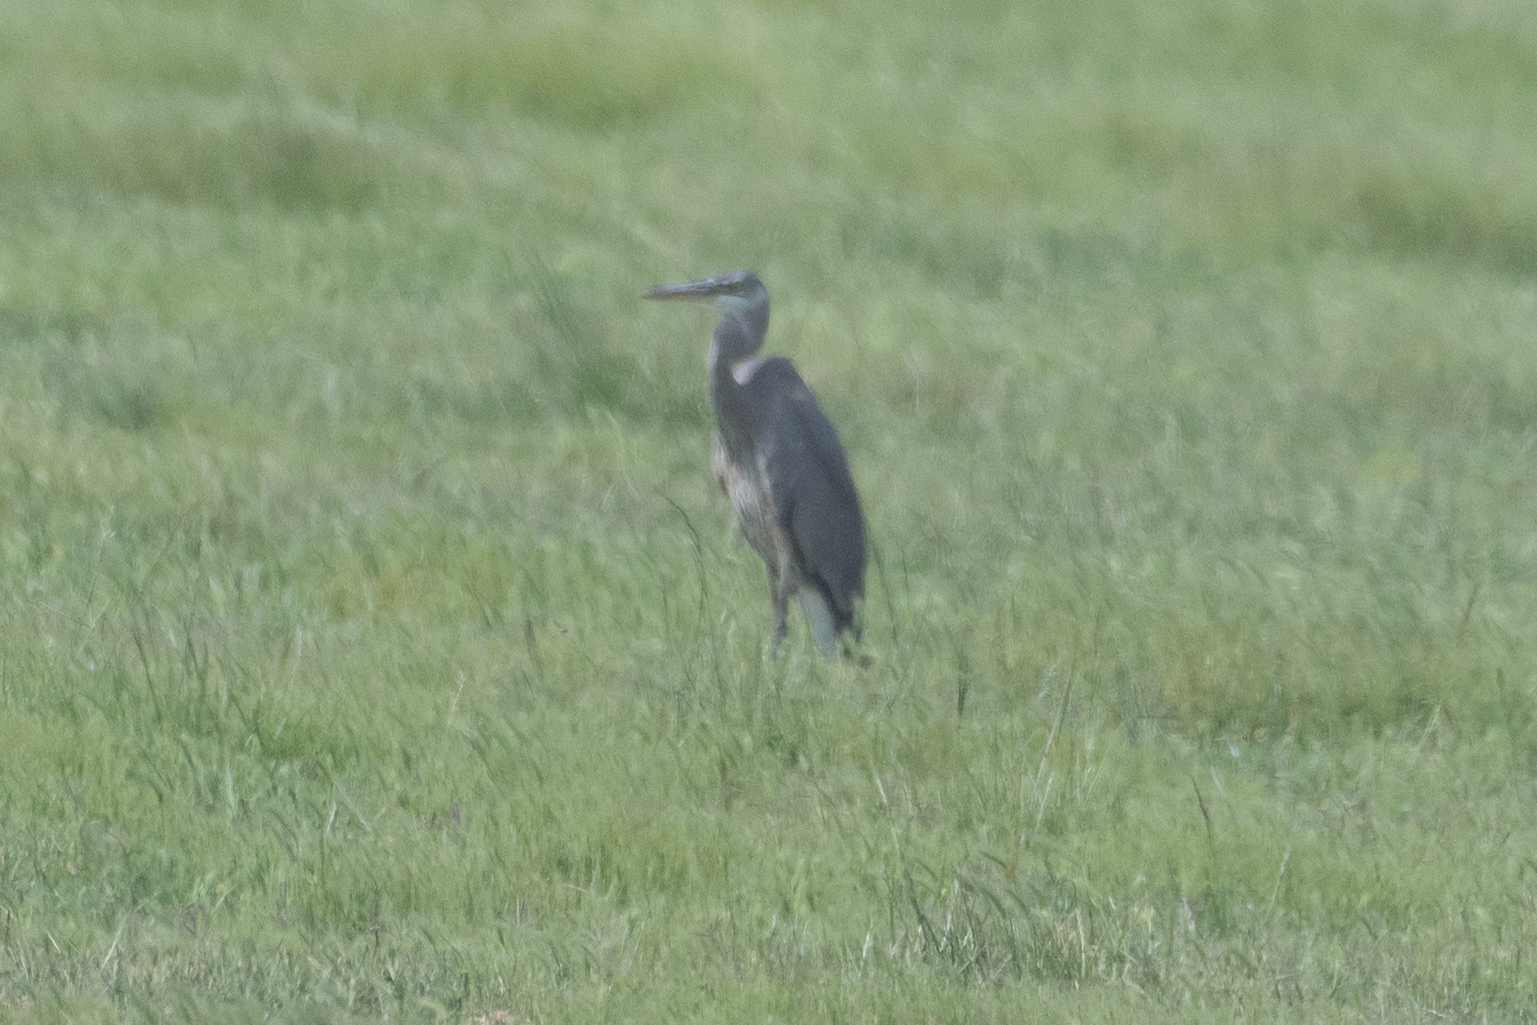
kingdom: Animalia
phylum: Chordata
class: Aves
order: Pelecaniformes
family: Ardeidae
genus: Ardea
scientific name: Ardea herodias
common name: Great blue heron
